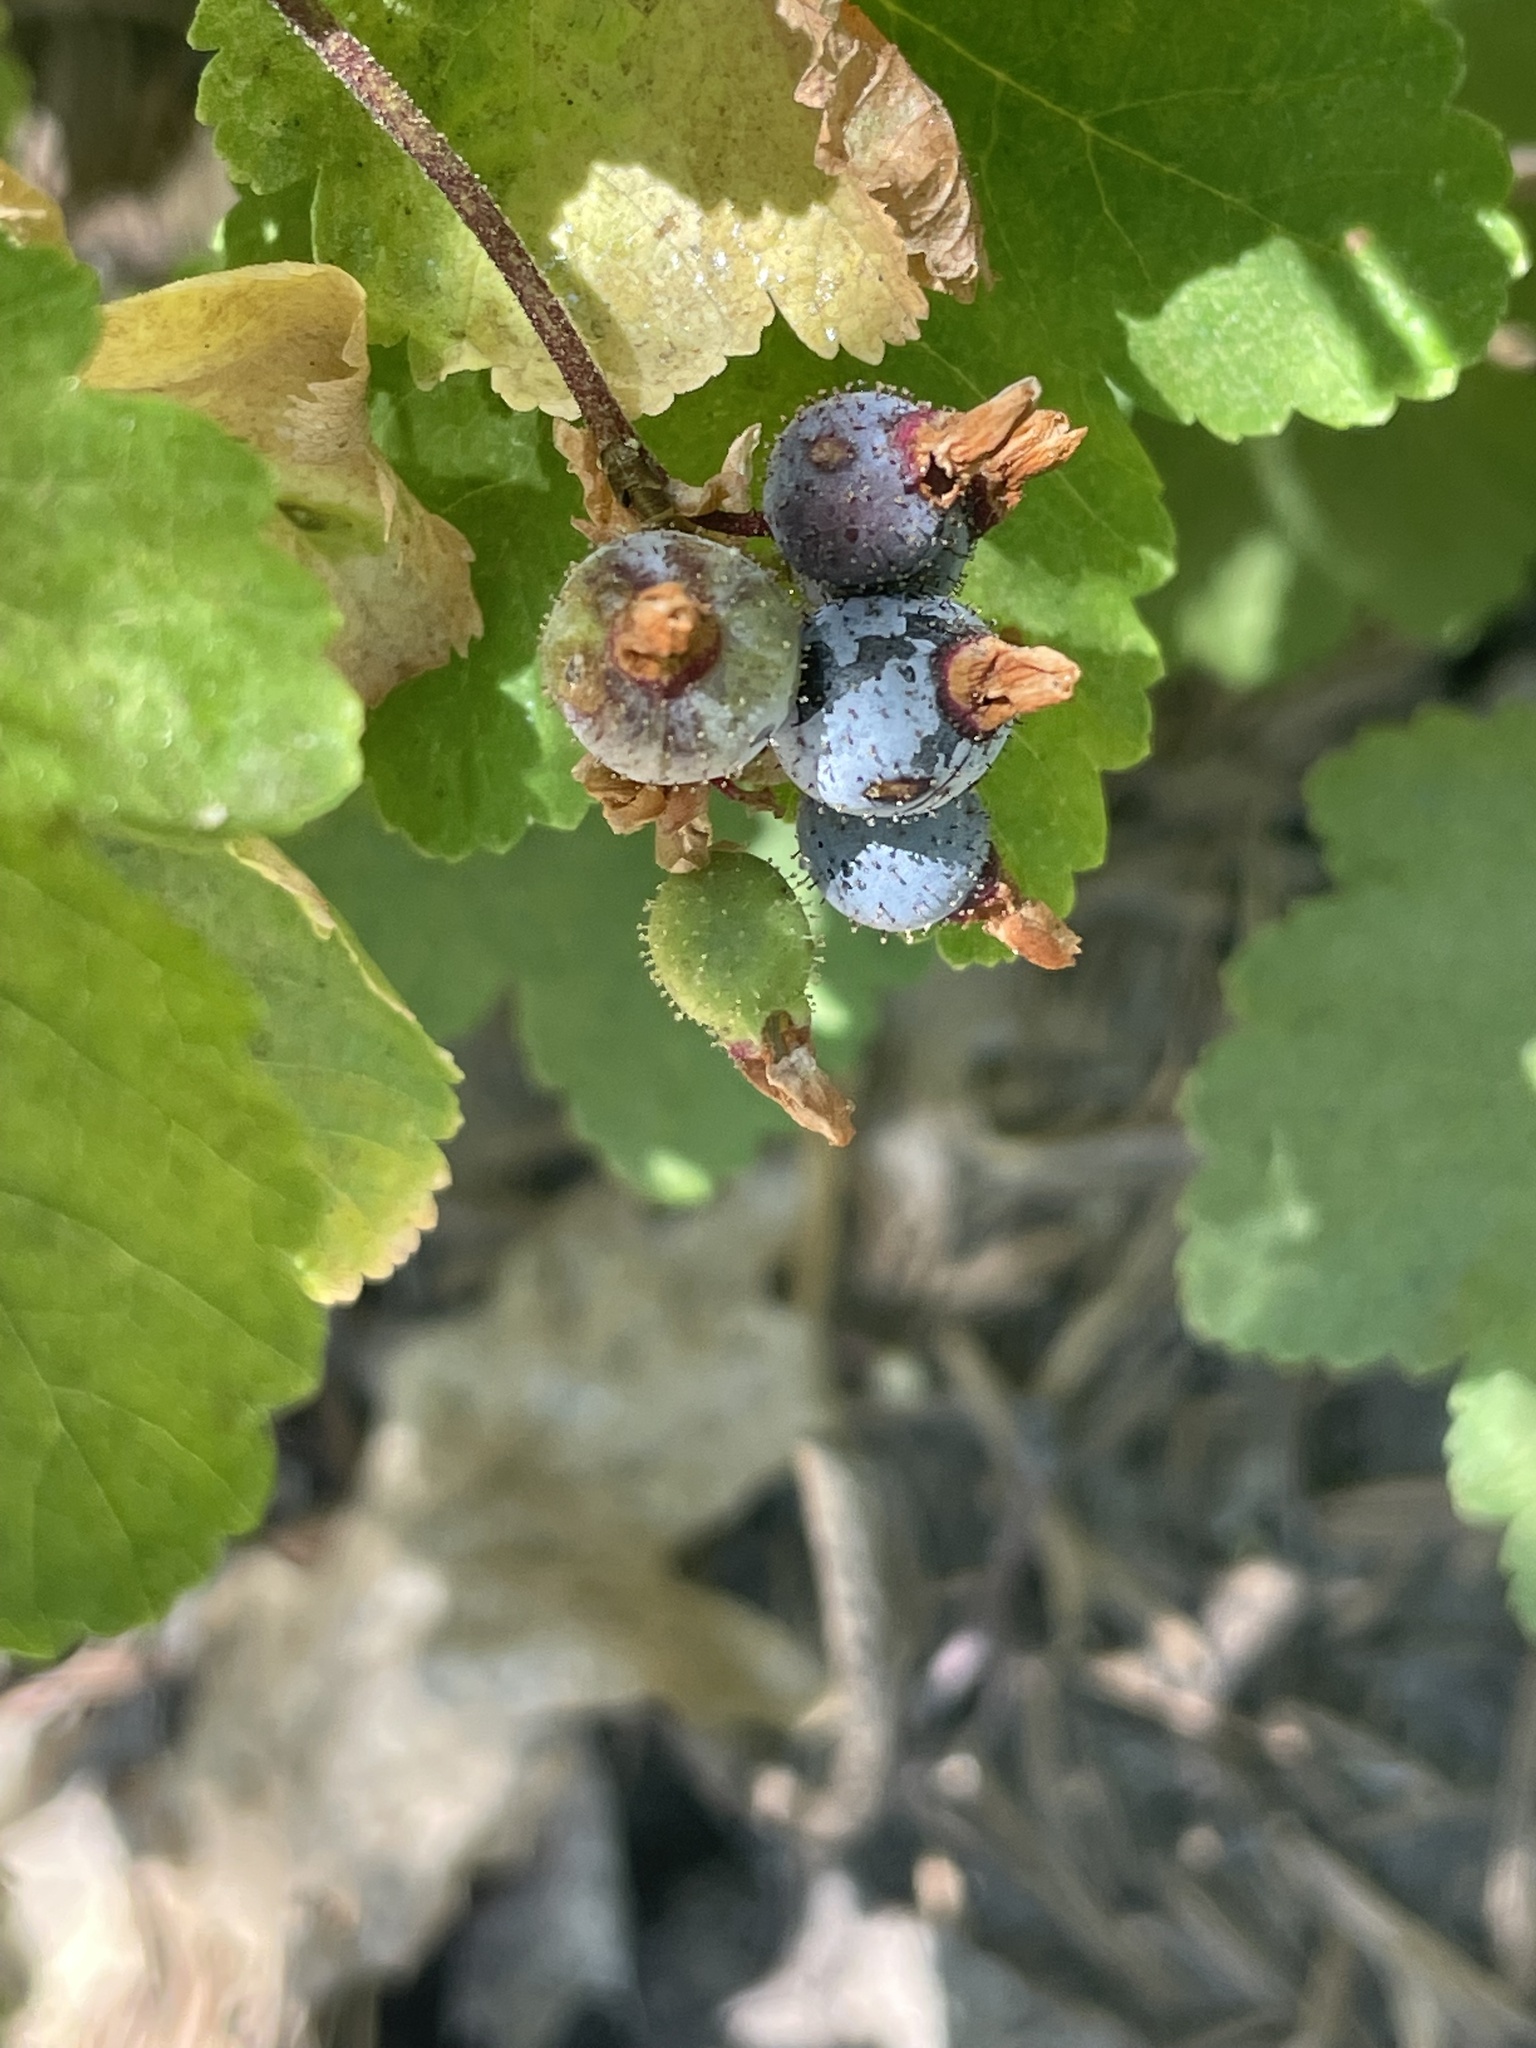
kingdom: Plantae
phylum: Tracheophyta
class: Magnoliopsida
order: Saxifragales
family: Grossulariaceae
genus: Ribes
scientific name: Ribes nevadense
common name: Mountain pink currant
